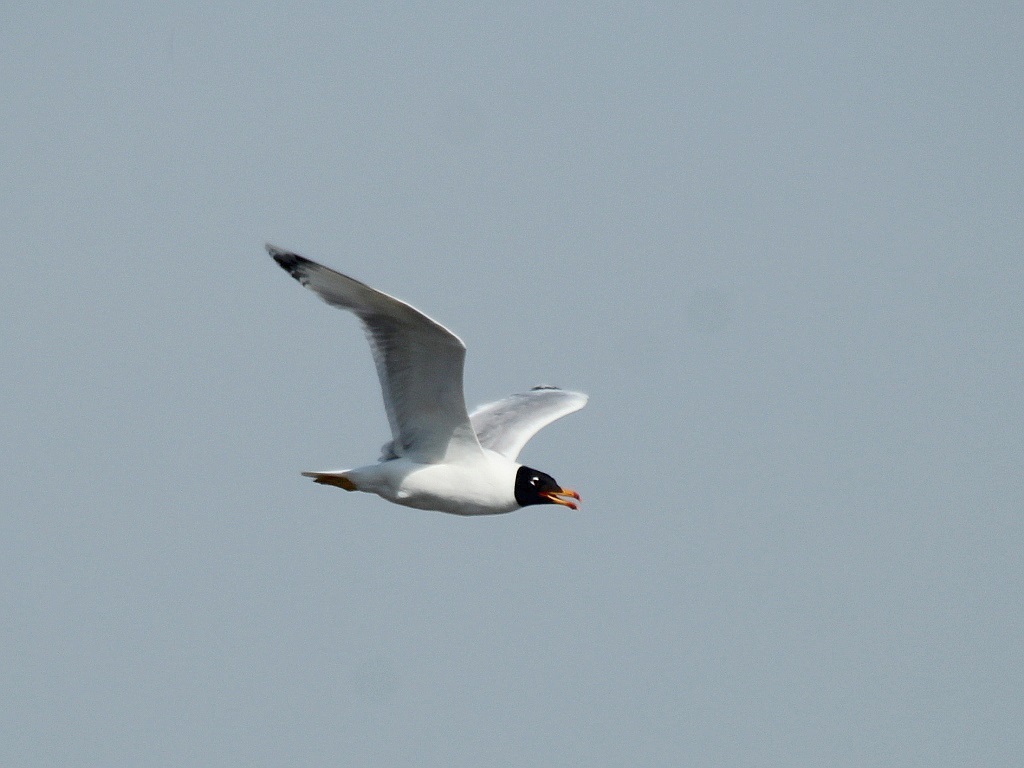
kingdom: Animalia
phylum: Chordata
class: Aves
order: Charadriiformes
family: Laridae
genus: Ichthyaetus
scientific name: Ichthyaetus ichthyaetus
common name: Pallas's gull
